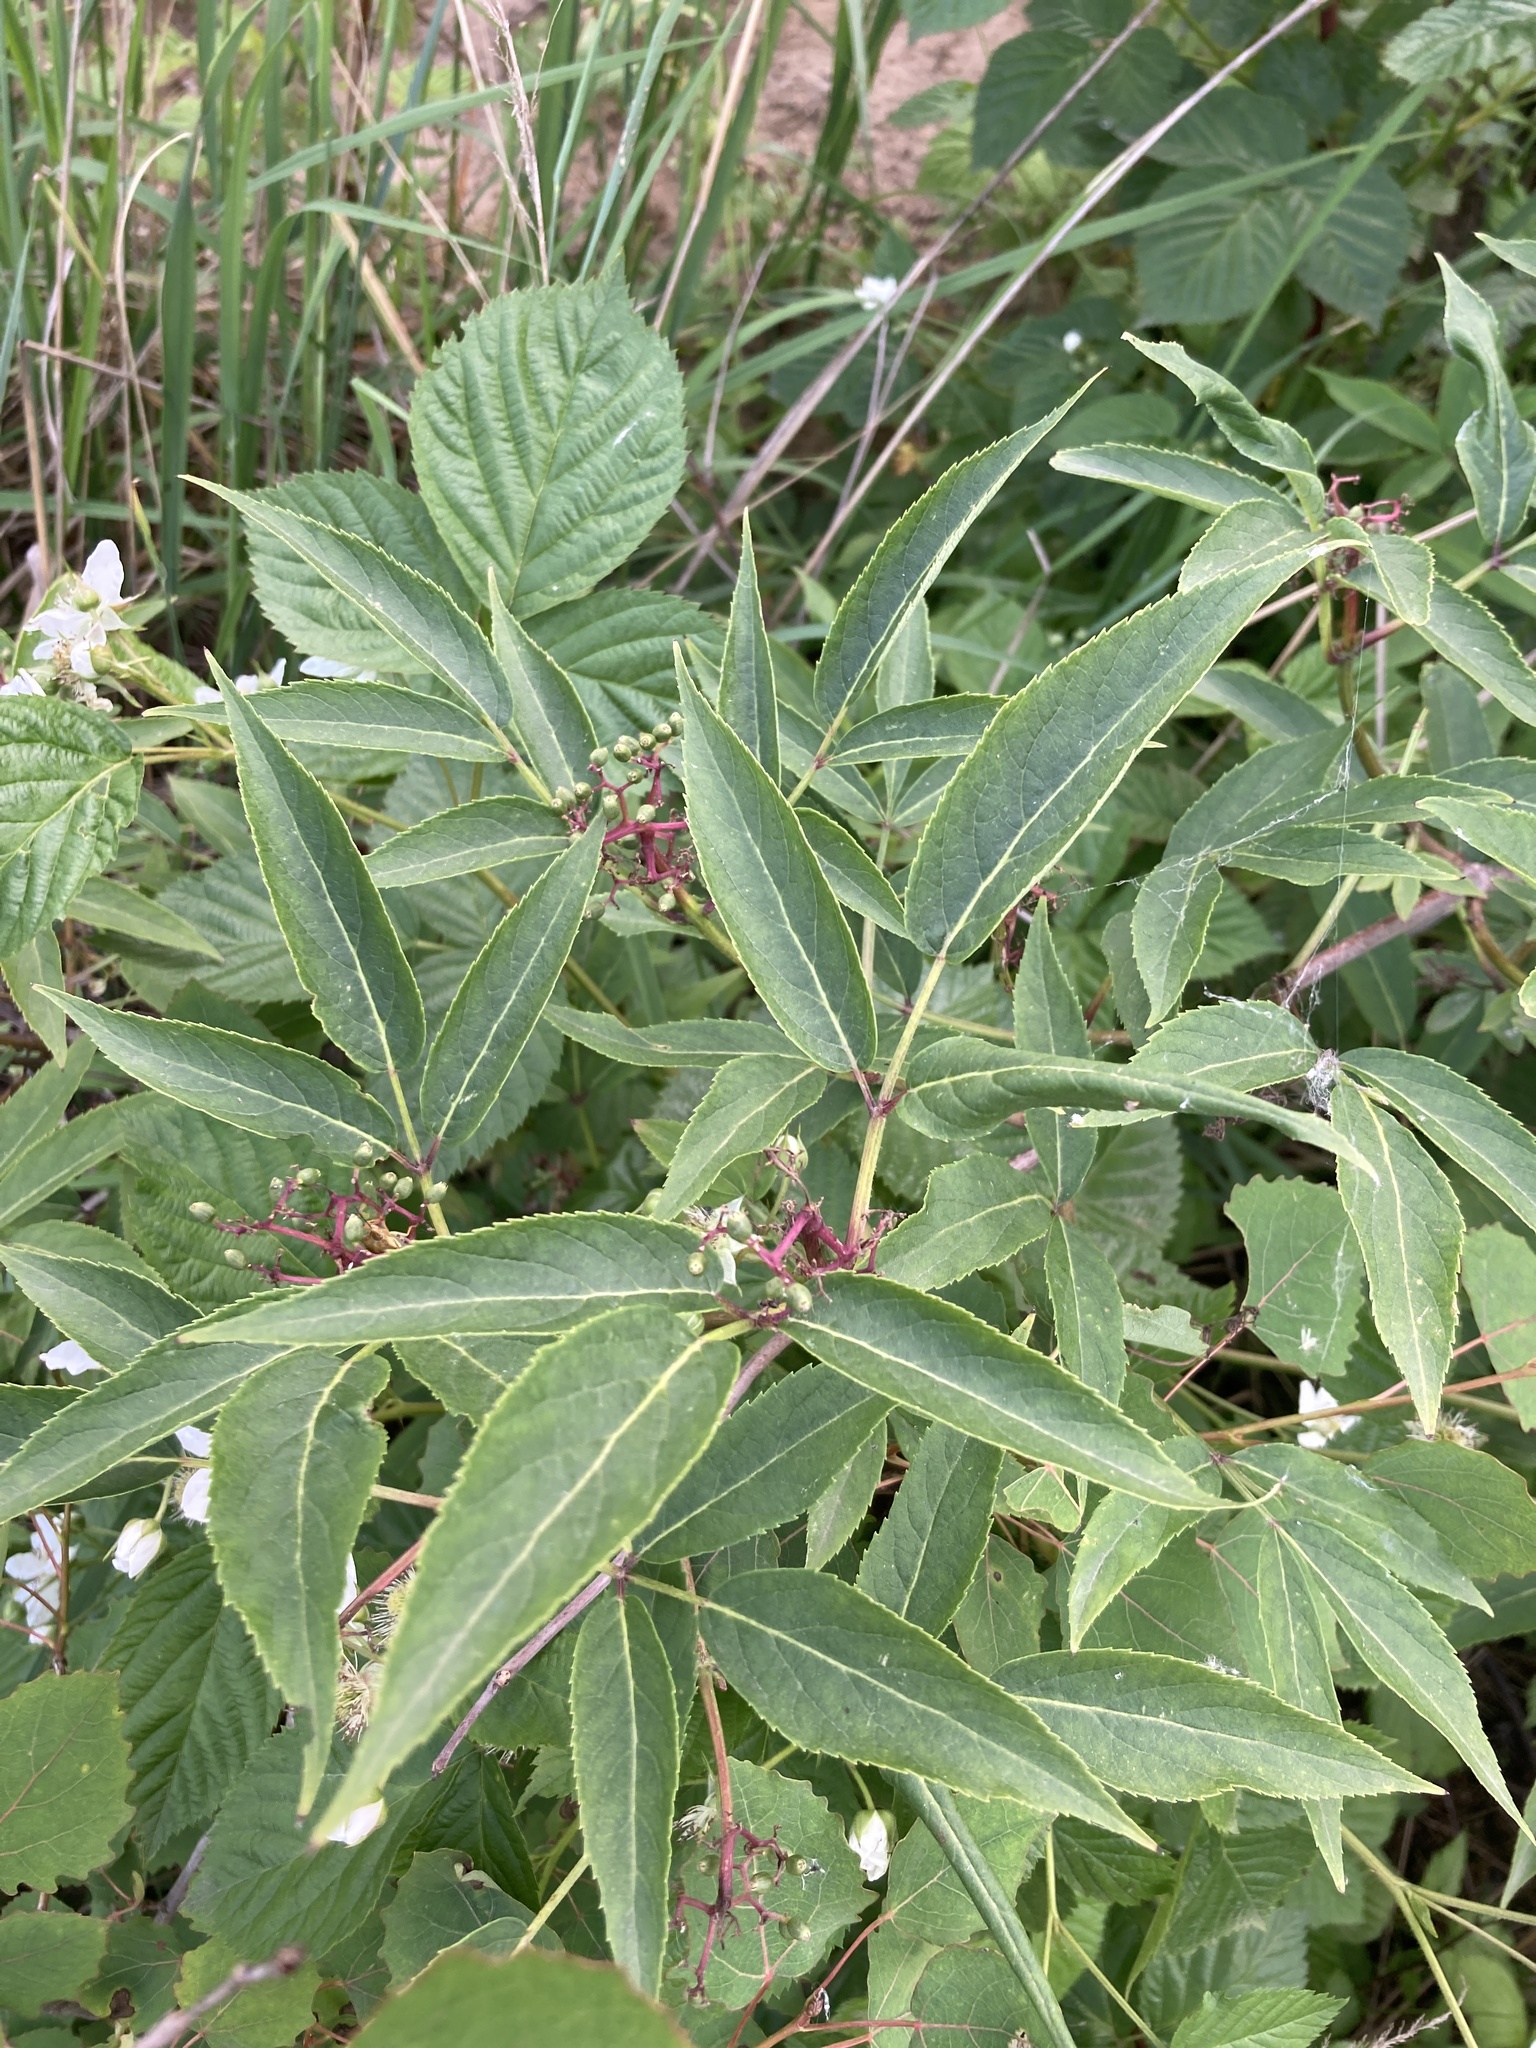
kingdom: Plantae
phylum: Tracheophyta
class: Magnoliopsida
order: Dipsacales
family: Viburnaceae
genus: Sambucus
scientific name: Sambucus racemosa
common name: Red-berried elder
